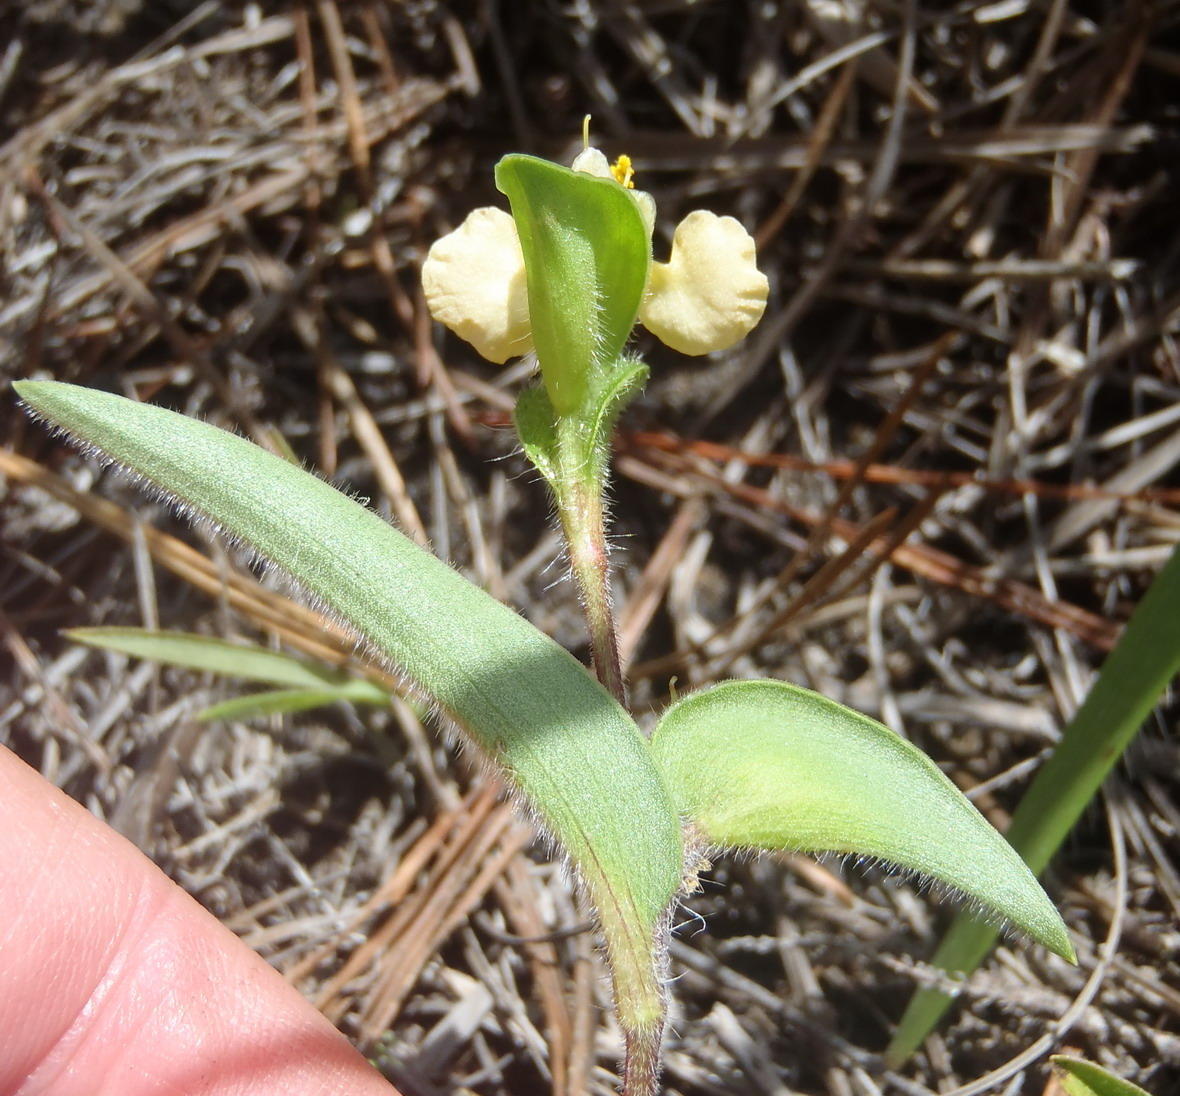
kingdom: Plantae
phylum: Tracheophyta
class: Liliopsida
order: Commelinales
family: Commelinaceae
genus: Commelina
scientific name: Commelina africana
